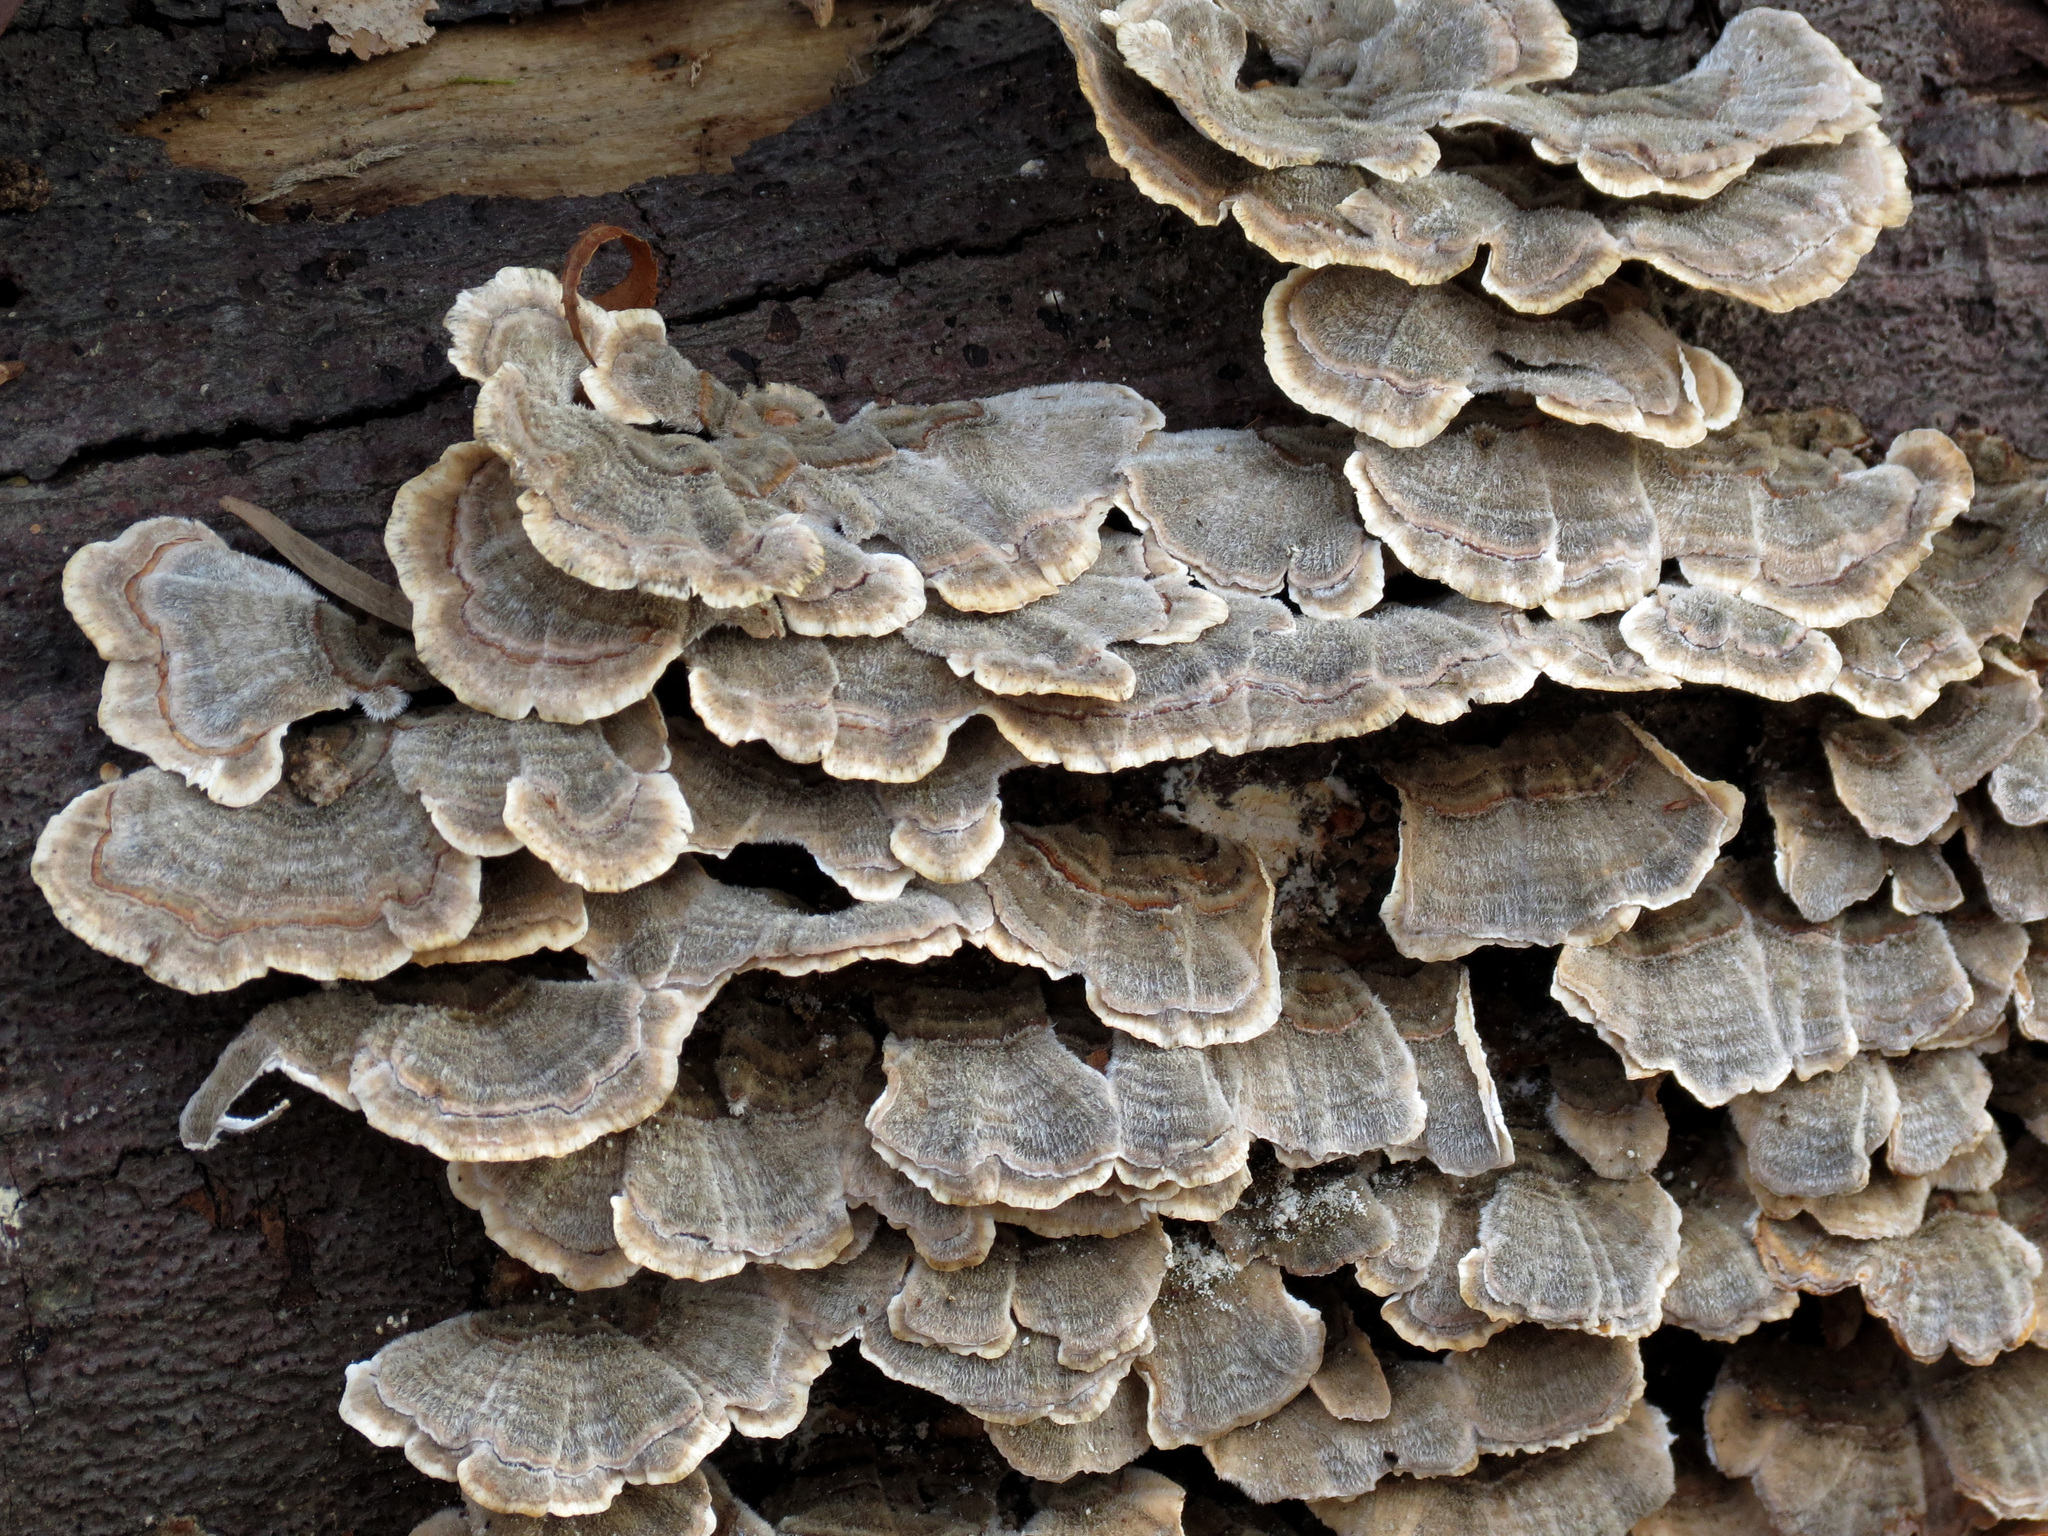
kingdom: Fungi
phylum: Basidiomycota
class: Agaricomycetes
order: Polyporales
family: Polyporaceae
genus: Trametes
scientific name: Trametes versicolor
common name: Turkeytail
